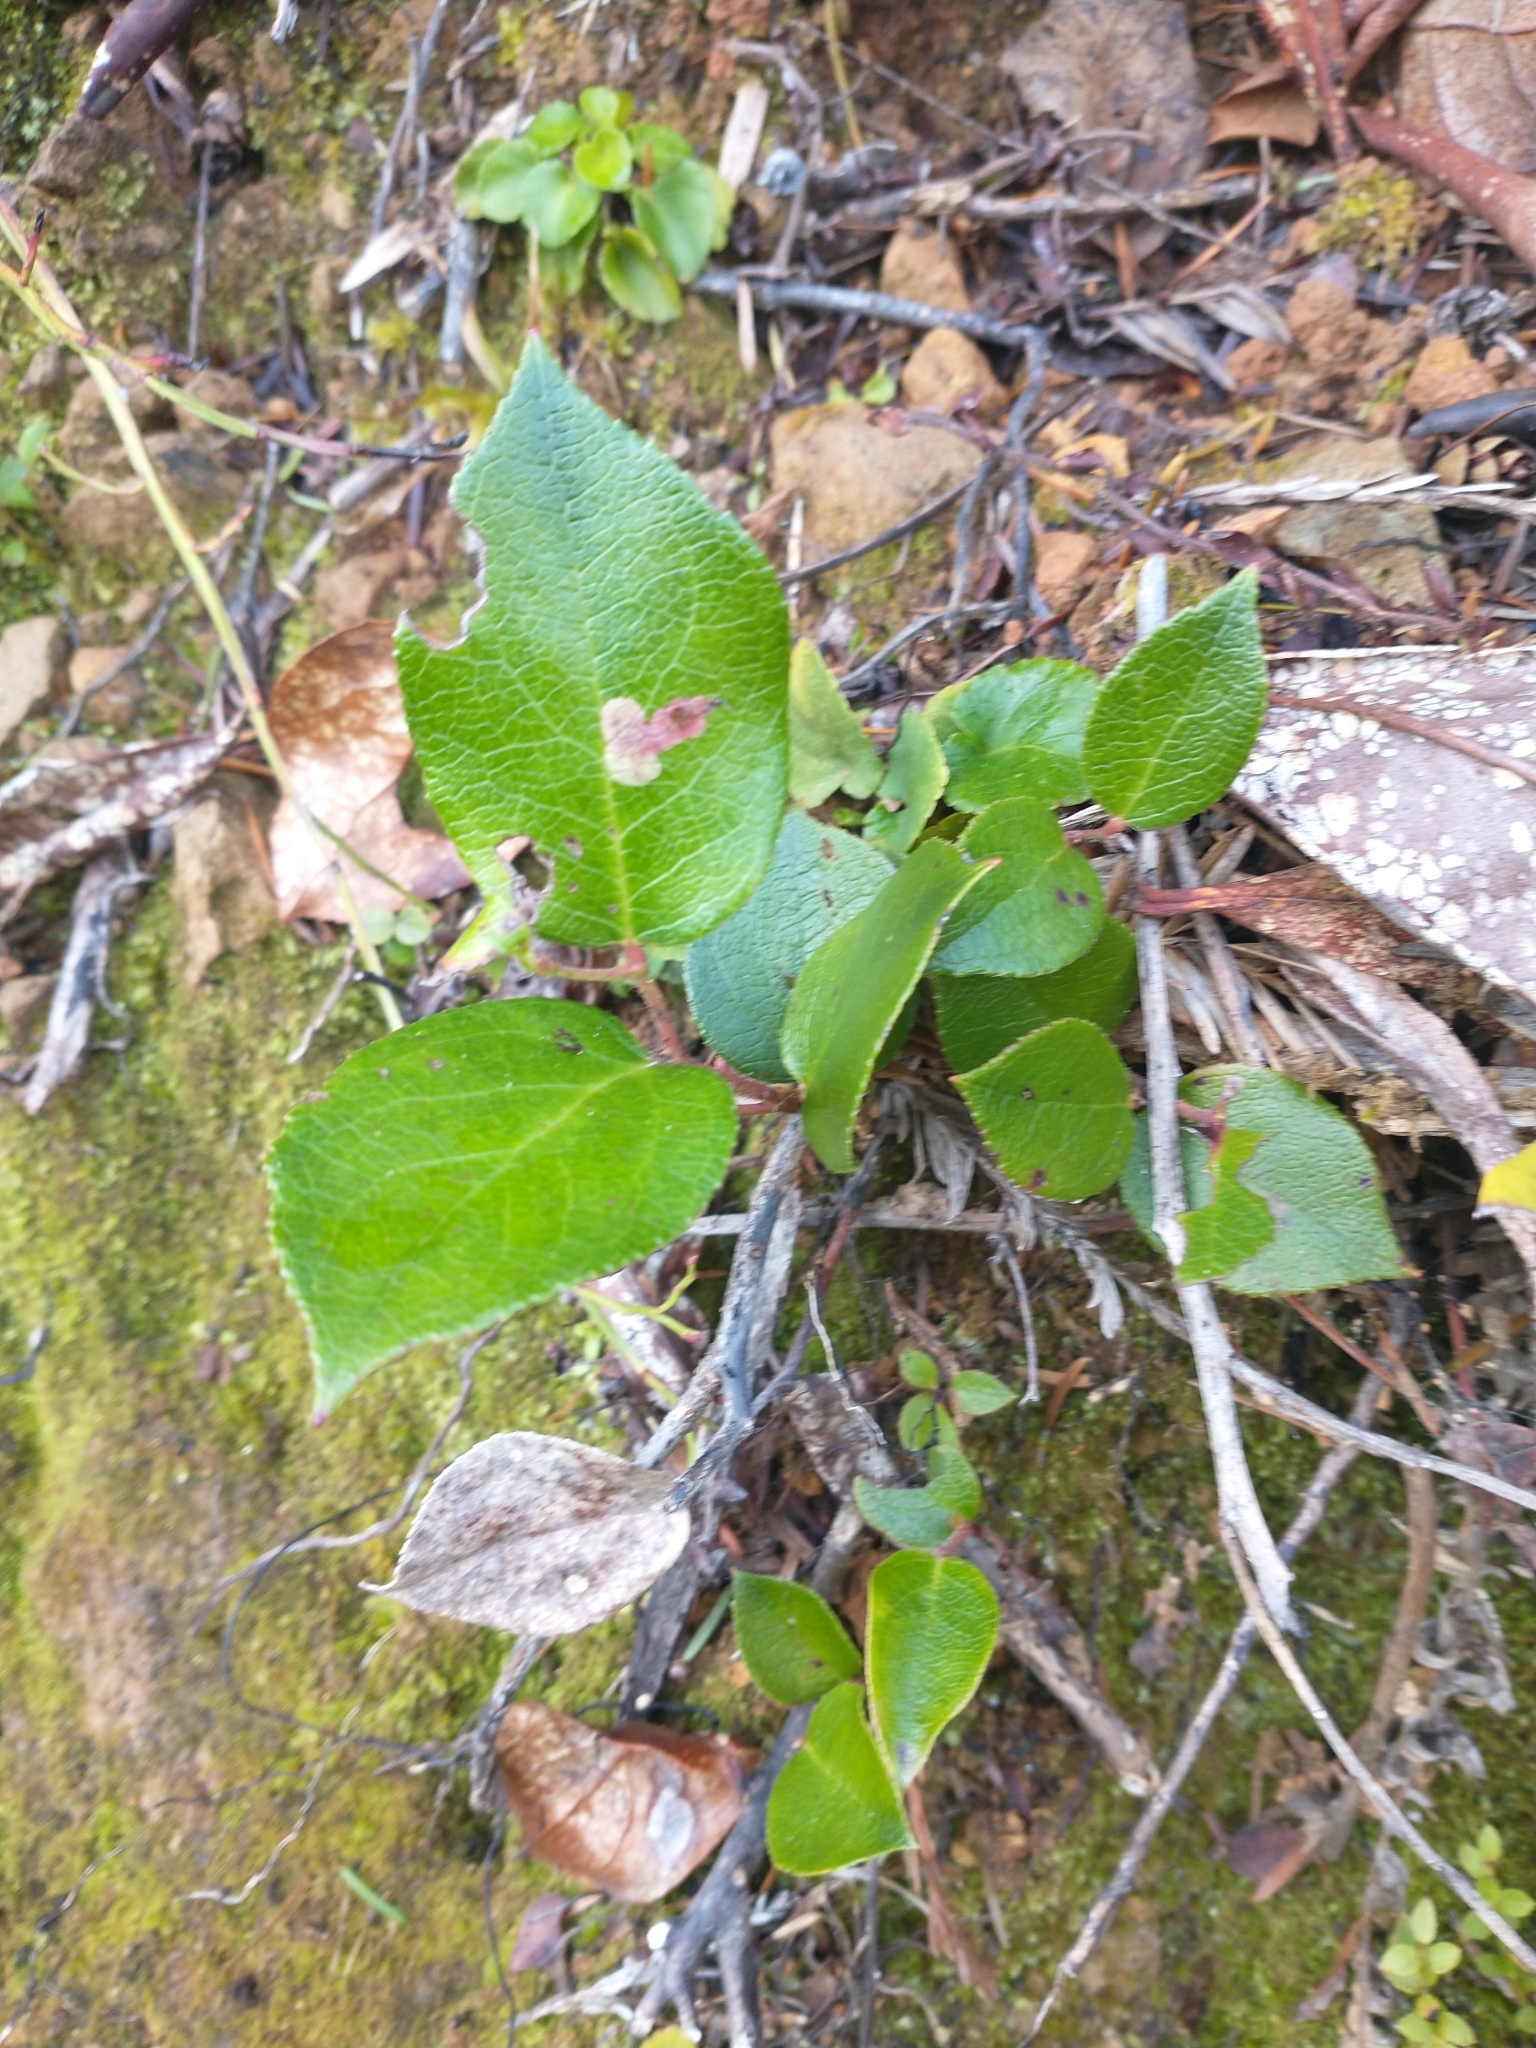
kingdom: Plantae
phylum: Tracheophyta
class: Magnoliopsida
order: Ericales
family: Ericaceae
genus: Gaultheria
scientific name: Gaultheria shallon
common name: Shallon
